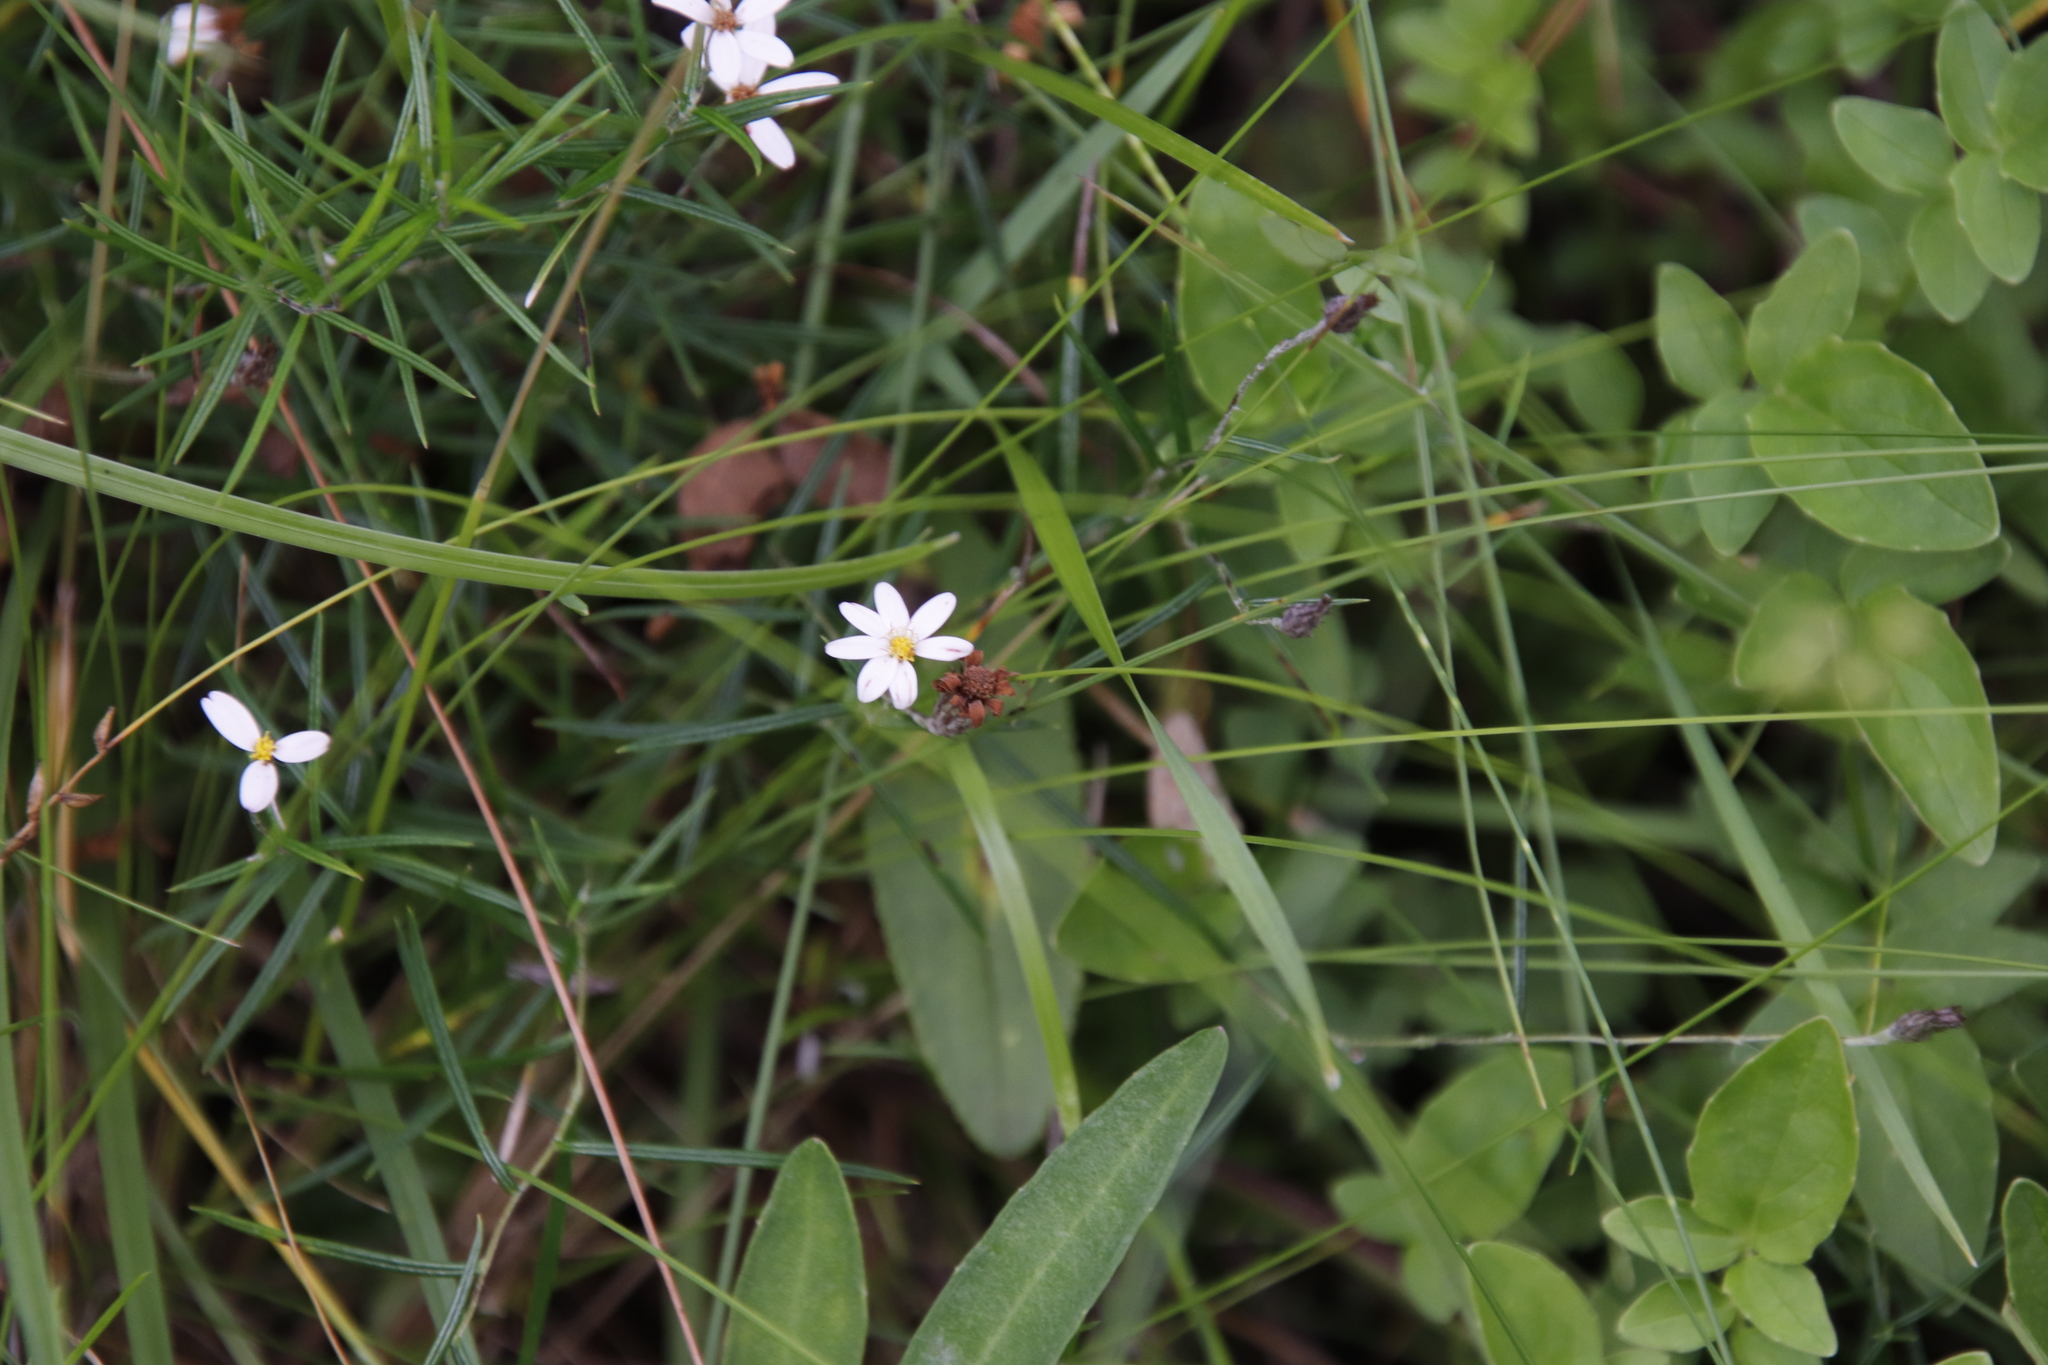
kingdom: Plantae
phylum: Tracheophyta
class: Magnoliopsida
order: Asterales
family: Asteraceae
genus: Athrixia
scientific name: Athrixia angustissima
